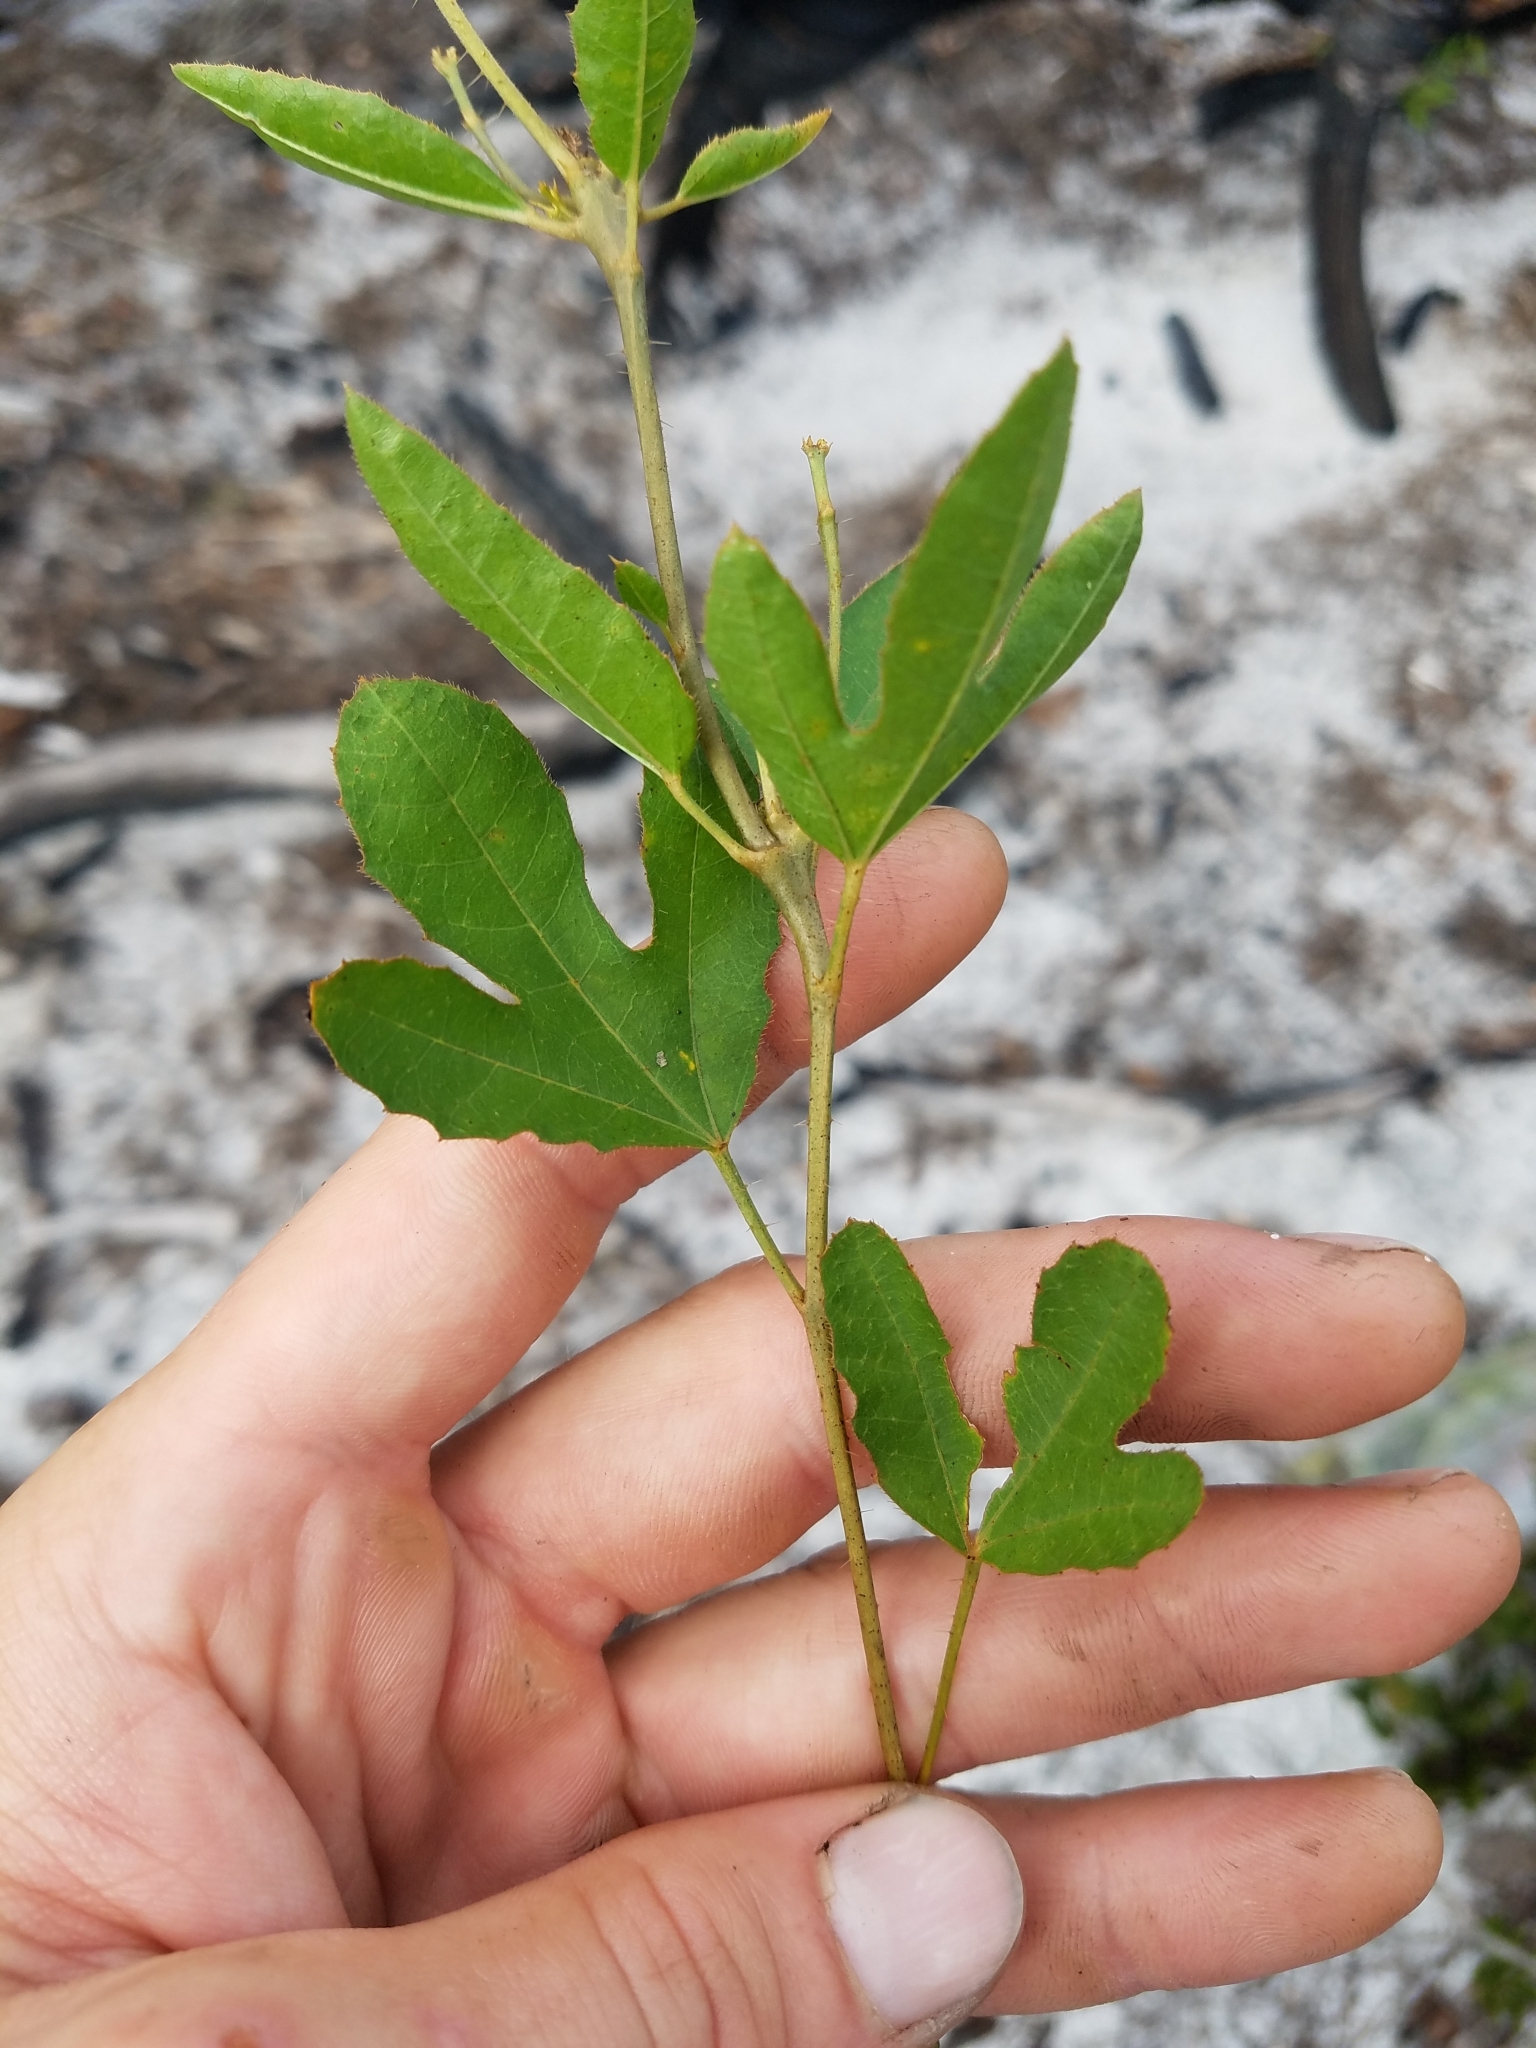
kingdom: Plantae
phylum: Tracheophyta
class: Magnoliopsida
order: Malpighiales
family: Euphorbiaceae
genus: Cnidoscolus
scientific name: Cnidoscolus stimulosus
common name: Bull-nettle
